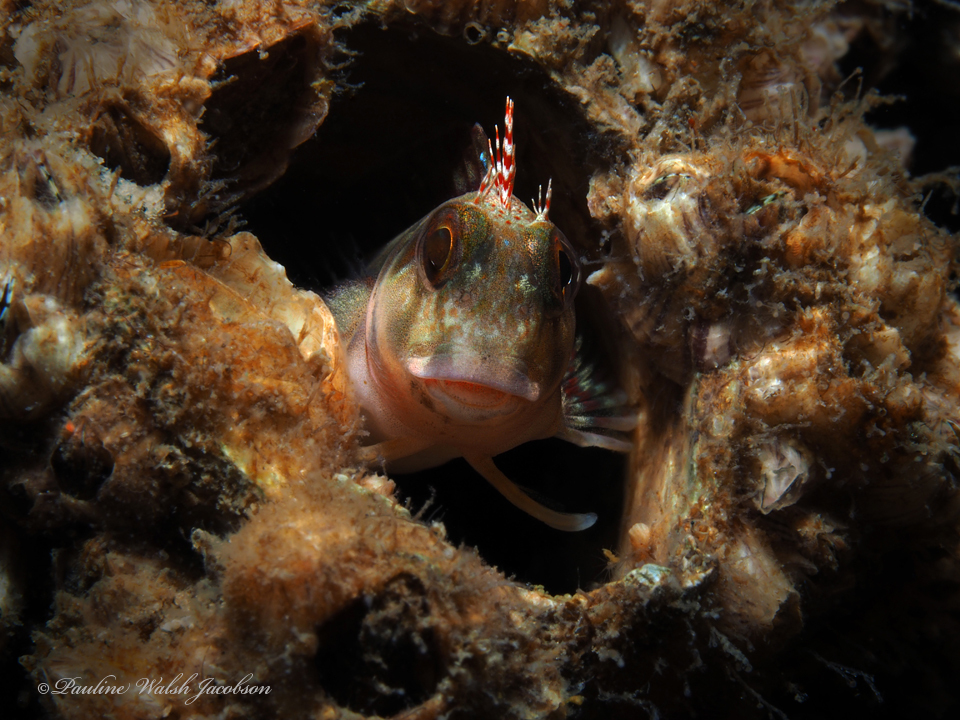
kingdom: Animalia
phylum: Chordata
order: Perciformes
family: Blenniidae
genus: Scartella
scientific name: Scartella cristata
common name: Molly miller
